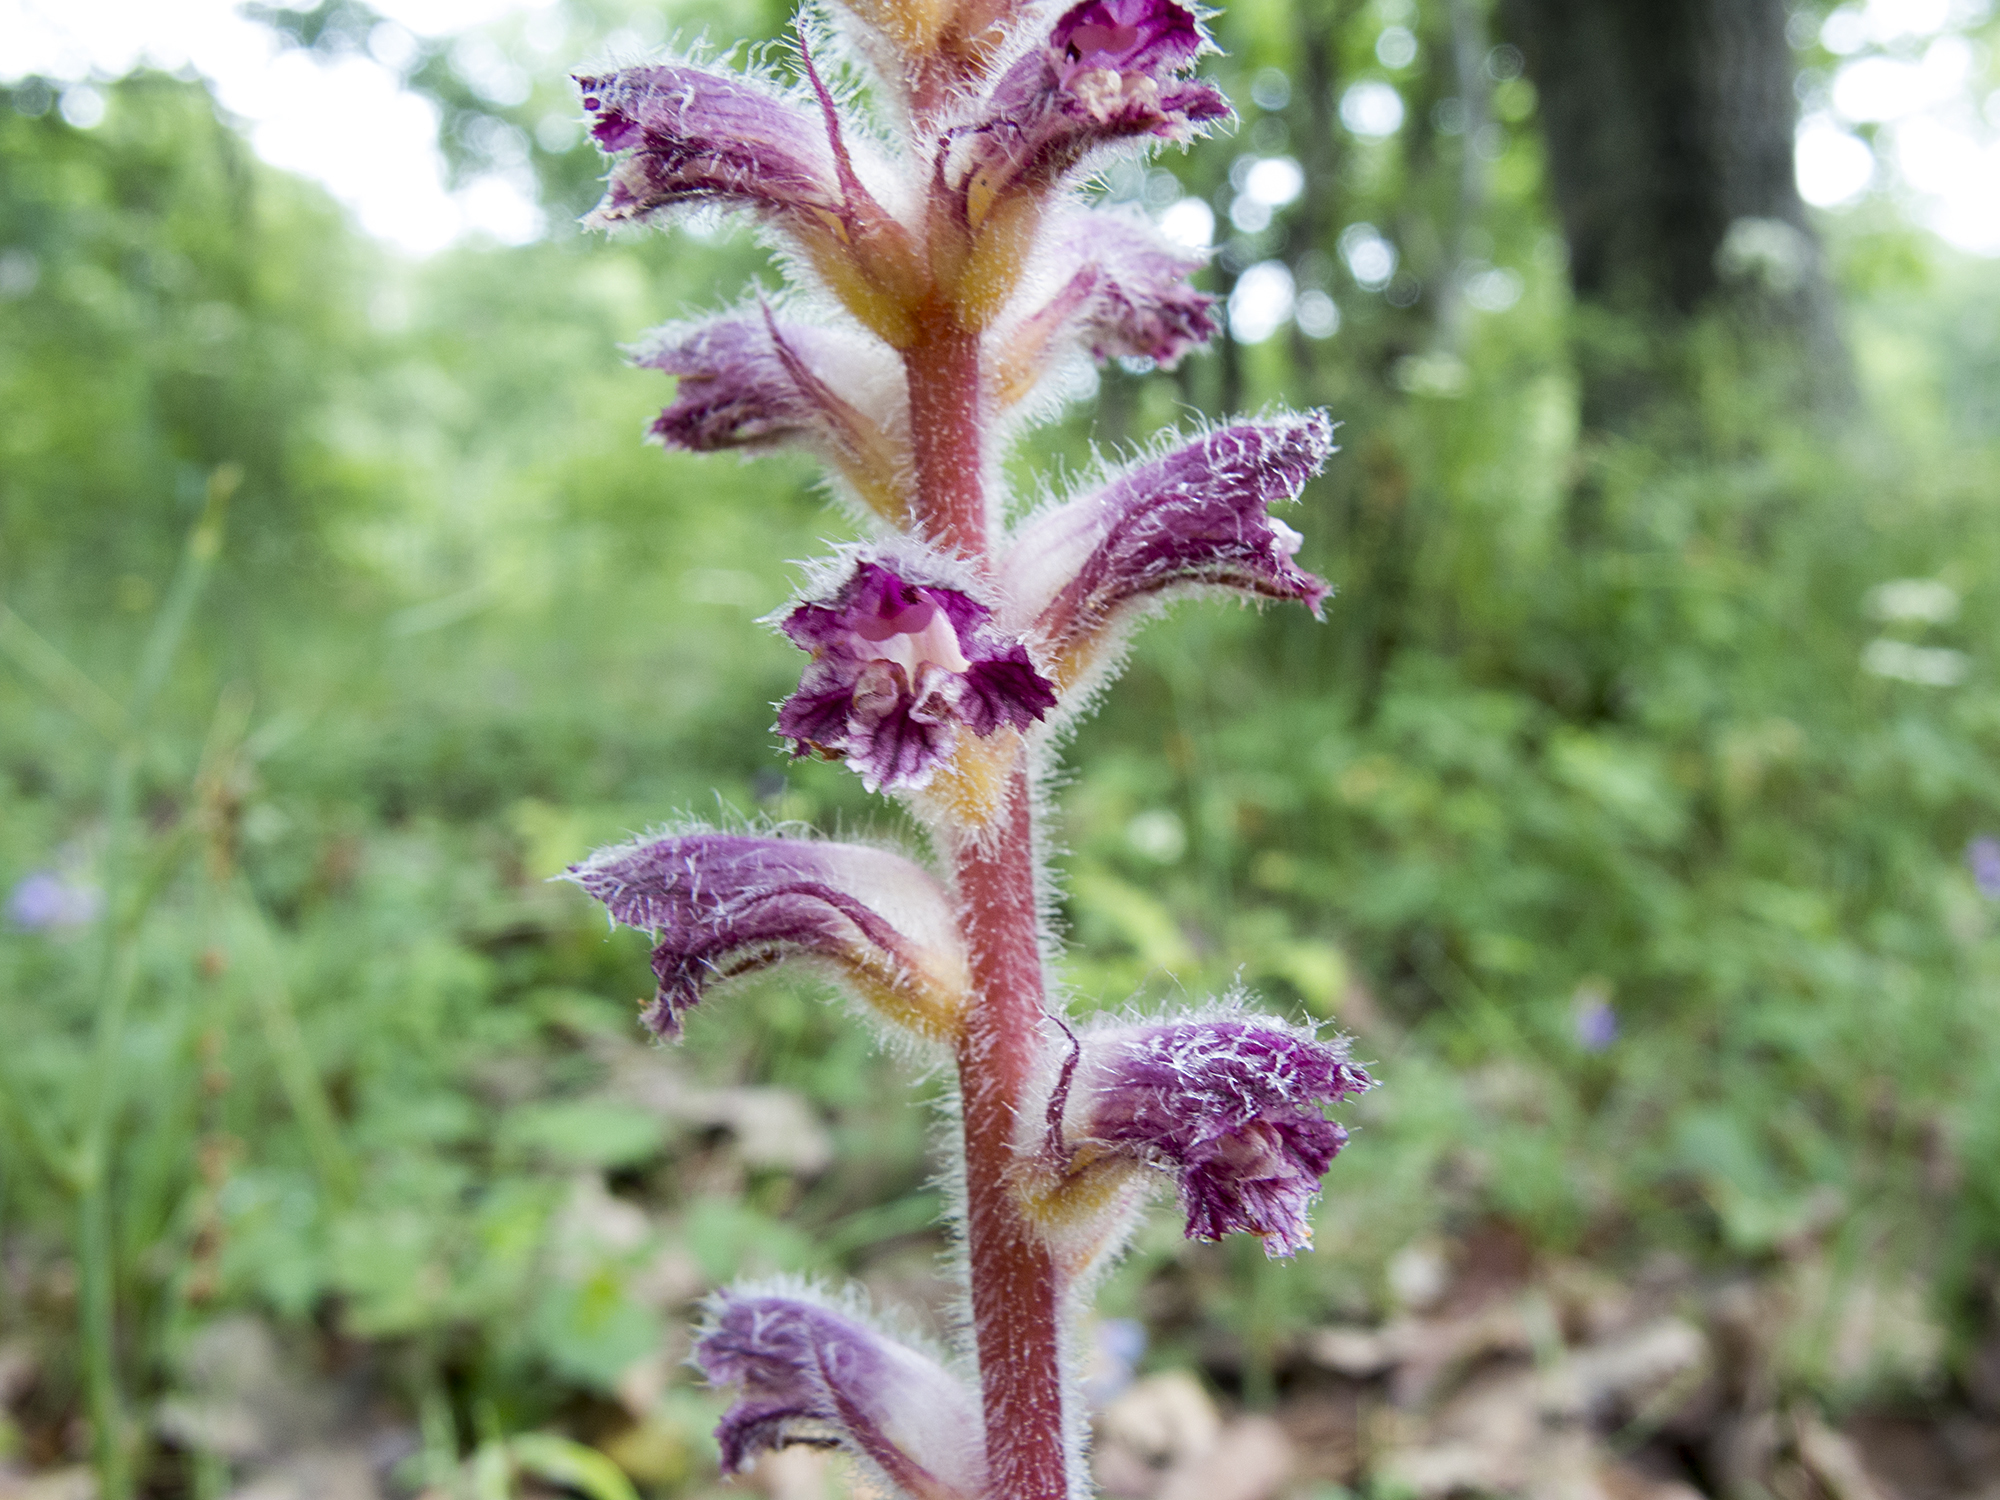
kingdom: Plantae
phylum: Tracheophyta
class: Magnoliopsida
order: Lamiales
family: Orobanchaceae
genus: Orobanche
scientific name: Orobanche pubescens
